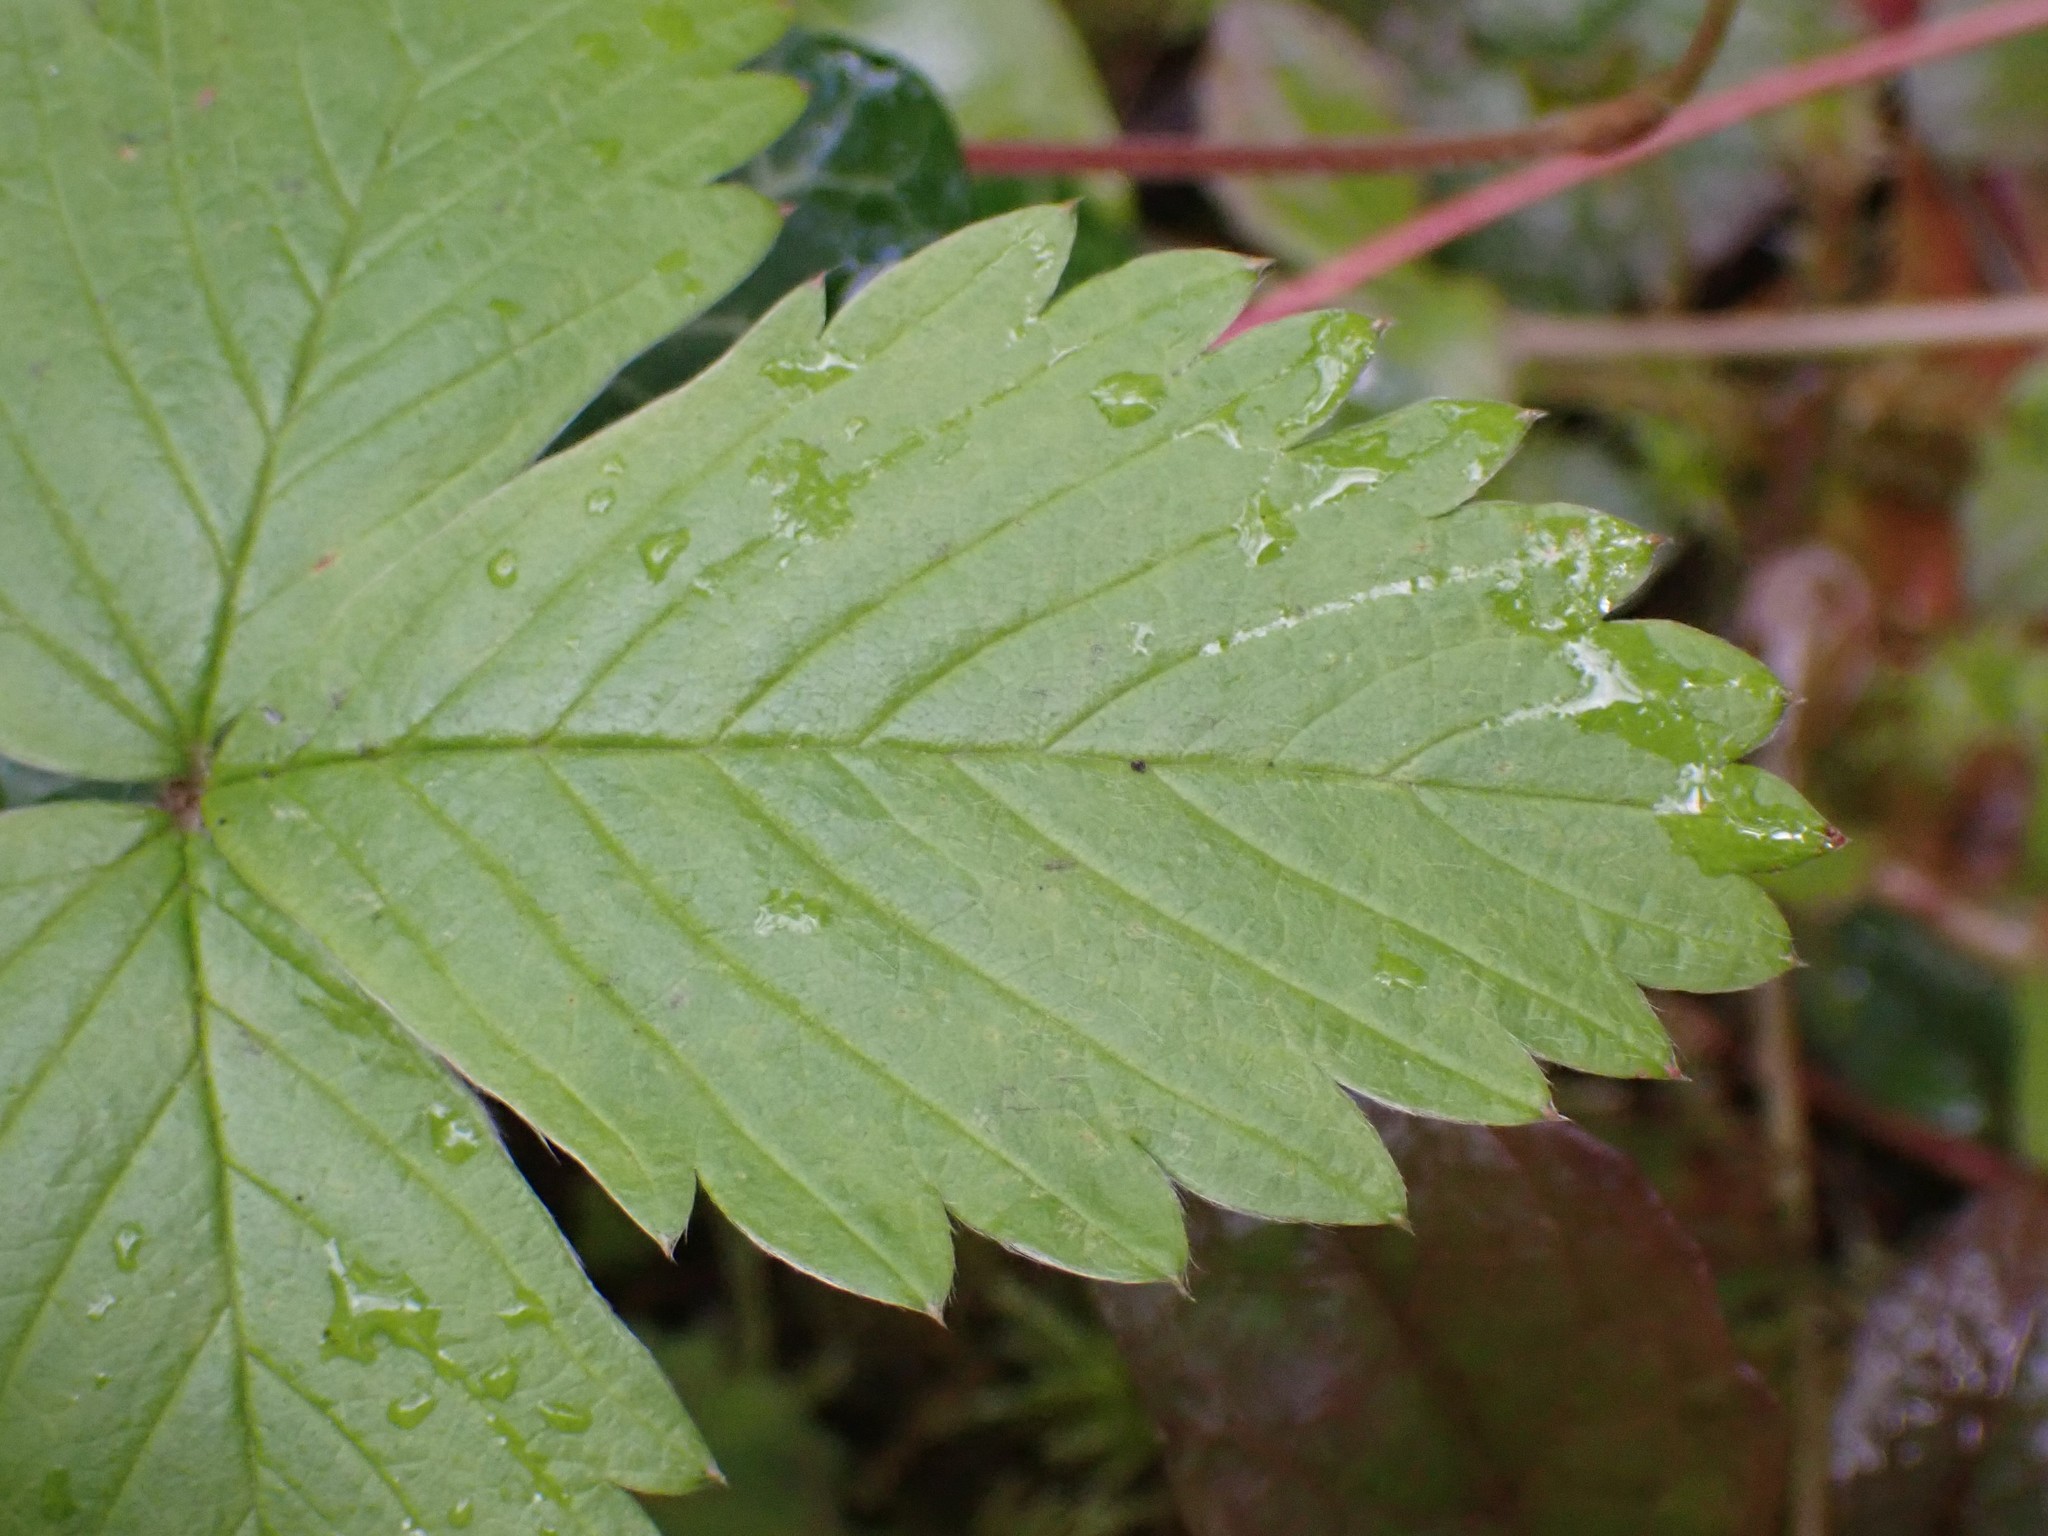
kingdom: Plantae
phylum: Tracheophyta
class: Magnoliopsida
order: Rosales
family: Rosaceae
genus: Fragaria
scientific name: Fragaria vesca
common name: Wild strawberry
